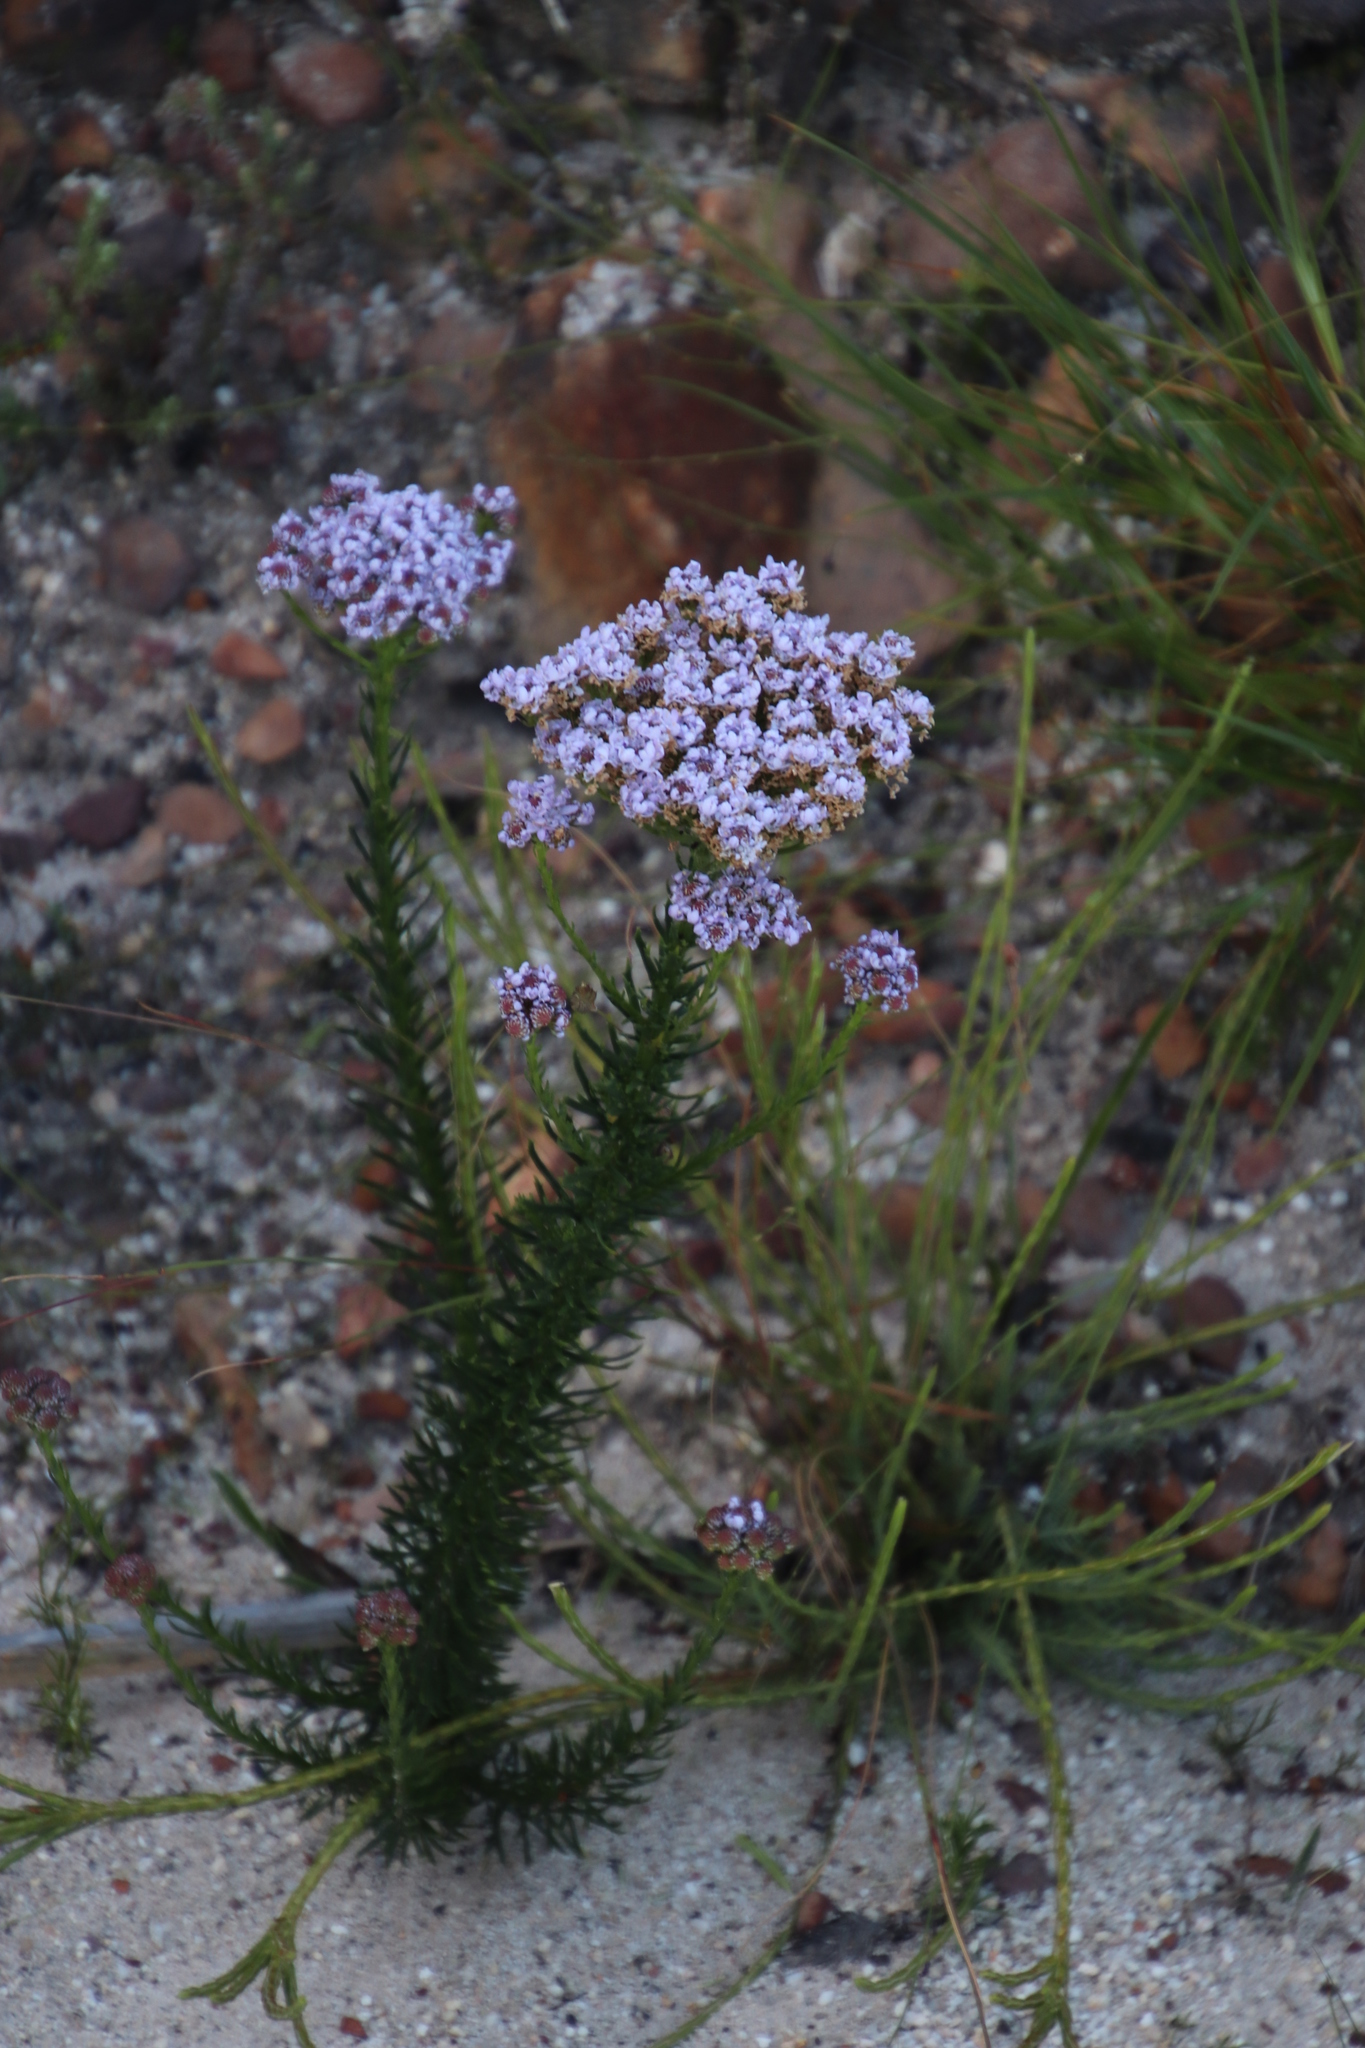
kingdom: Plantae
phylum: Tracheophyta
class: Magnoliopsida
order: Lamiales
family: Scrophulariaceae
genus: Pseudoselago
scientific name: Pseudoselago spuria
